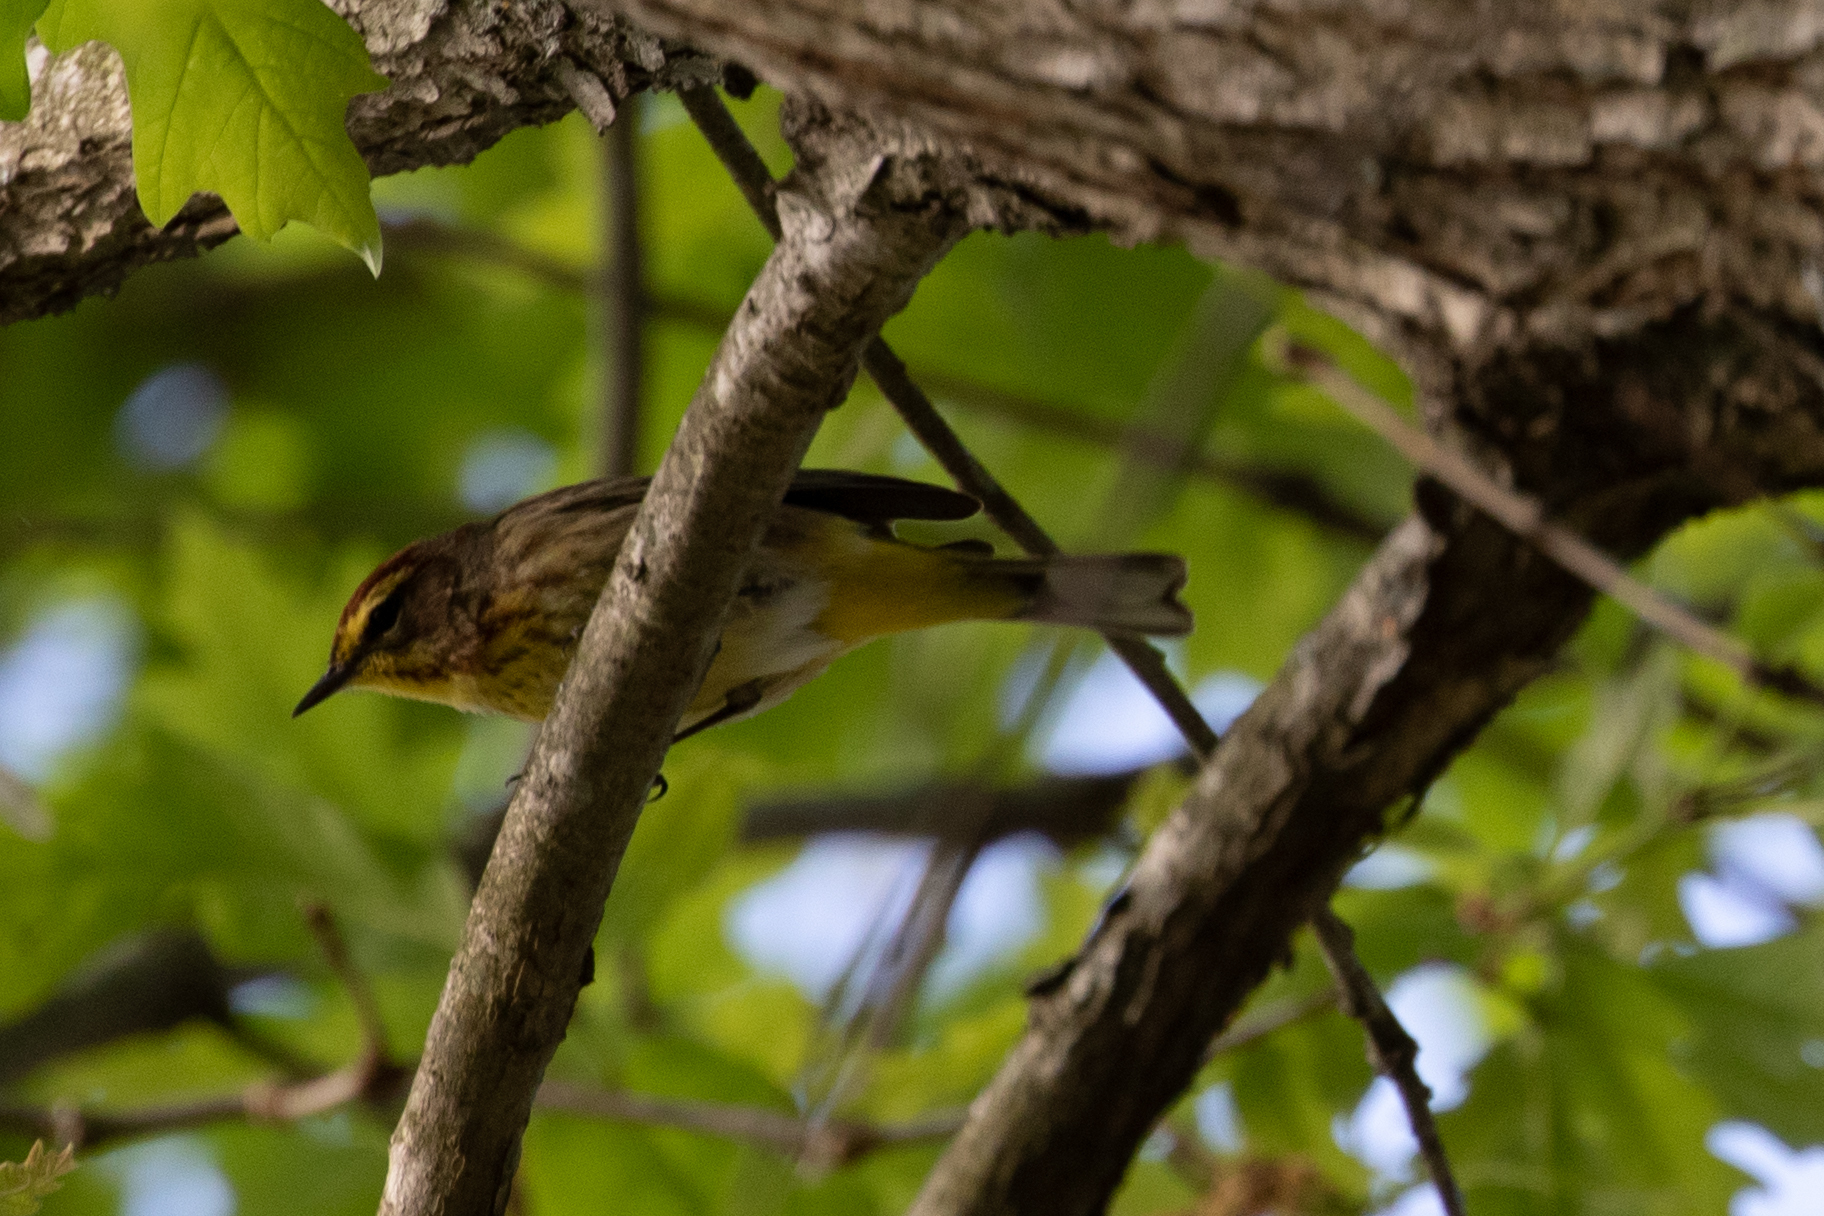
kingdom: Animalia
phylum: Chordata
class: Aves
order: Passeriformes
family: Parulidae
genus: Setophaga
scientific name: Setophaga palmarum
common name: Palm warbler
